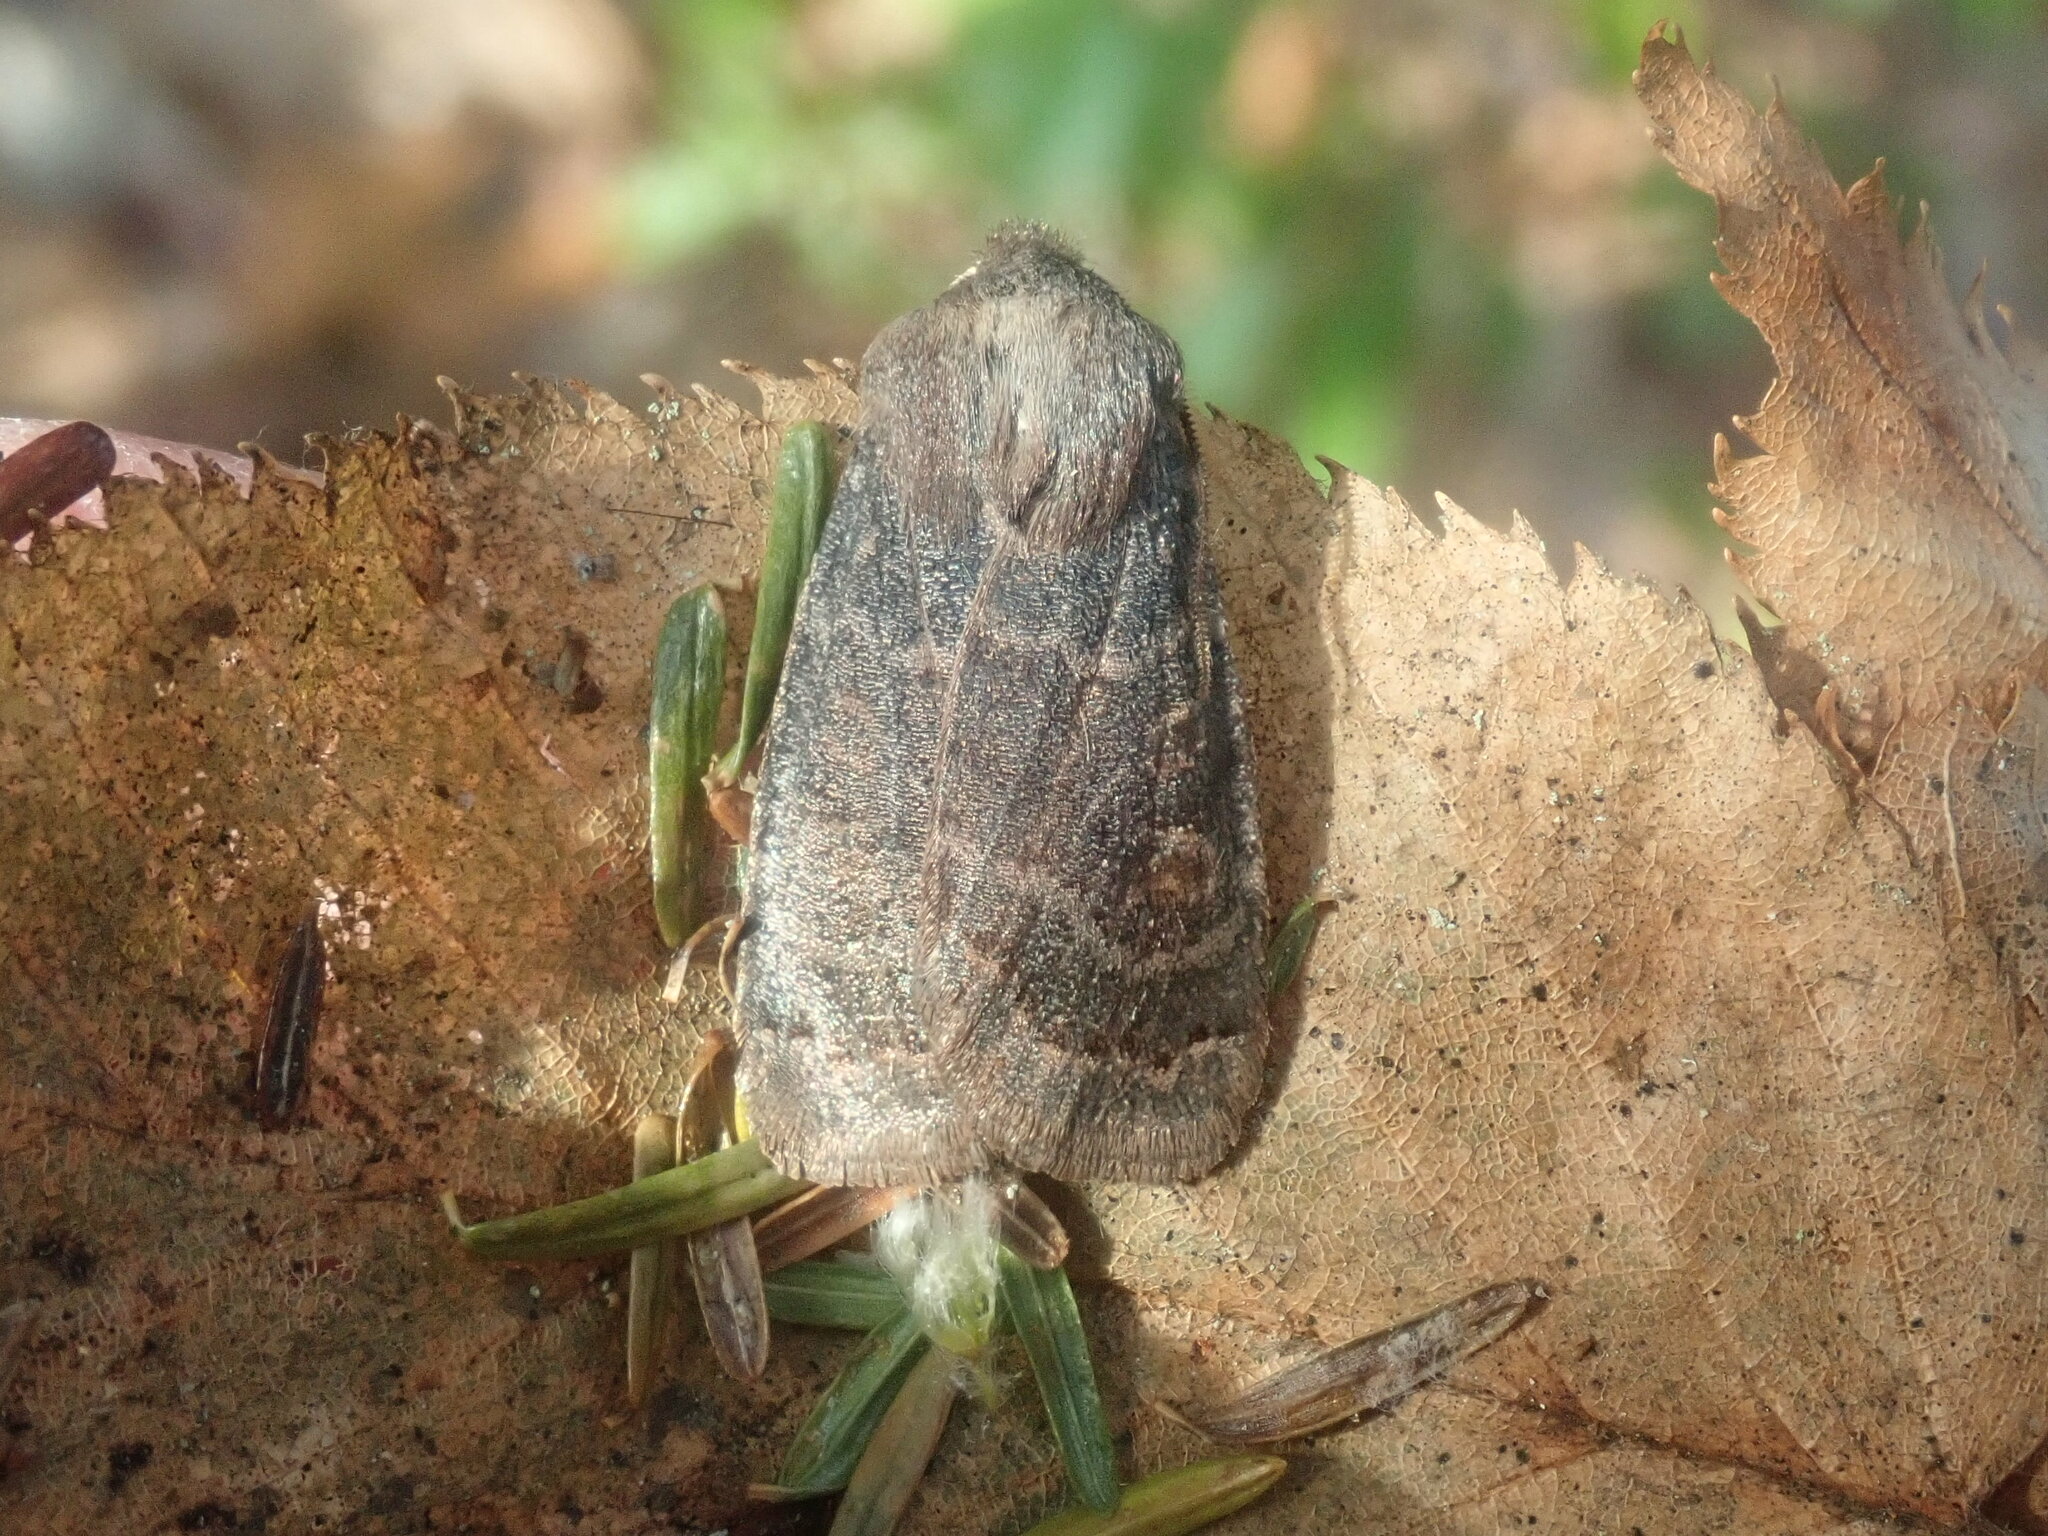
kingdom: Animalia
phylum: Arthropoda
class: Insecta
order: Lepidoptera
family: Noctuidae
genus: Homoglaea
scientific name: Homoglaea hircina
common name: Goat sallow
